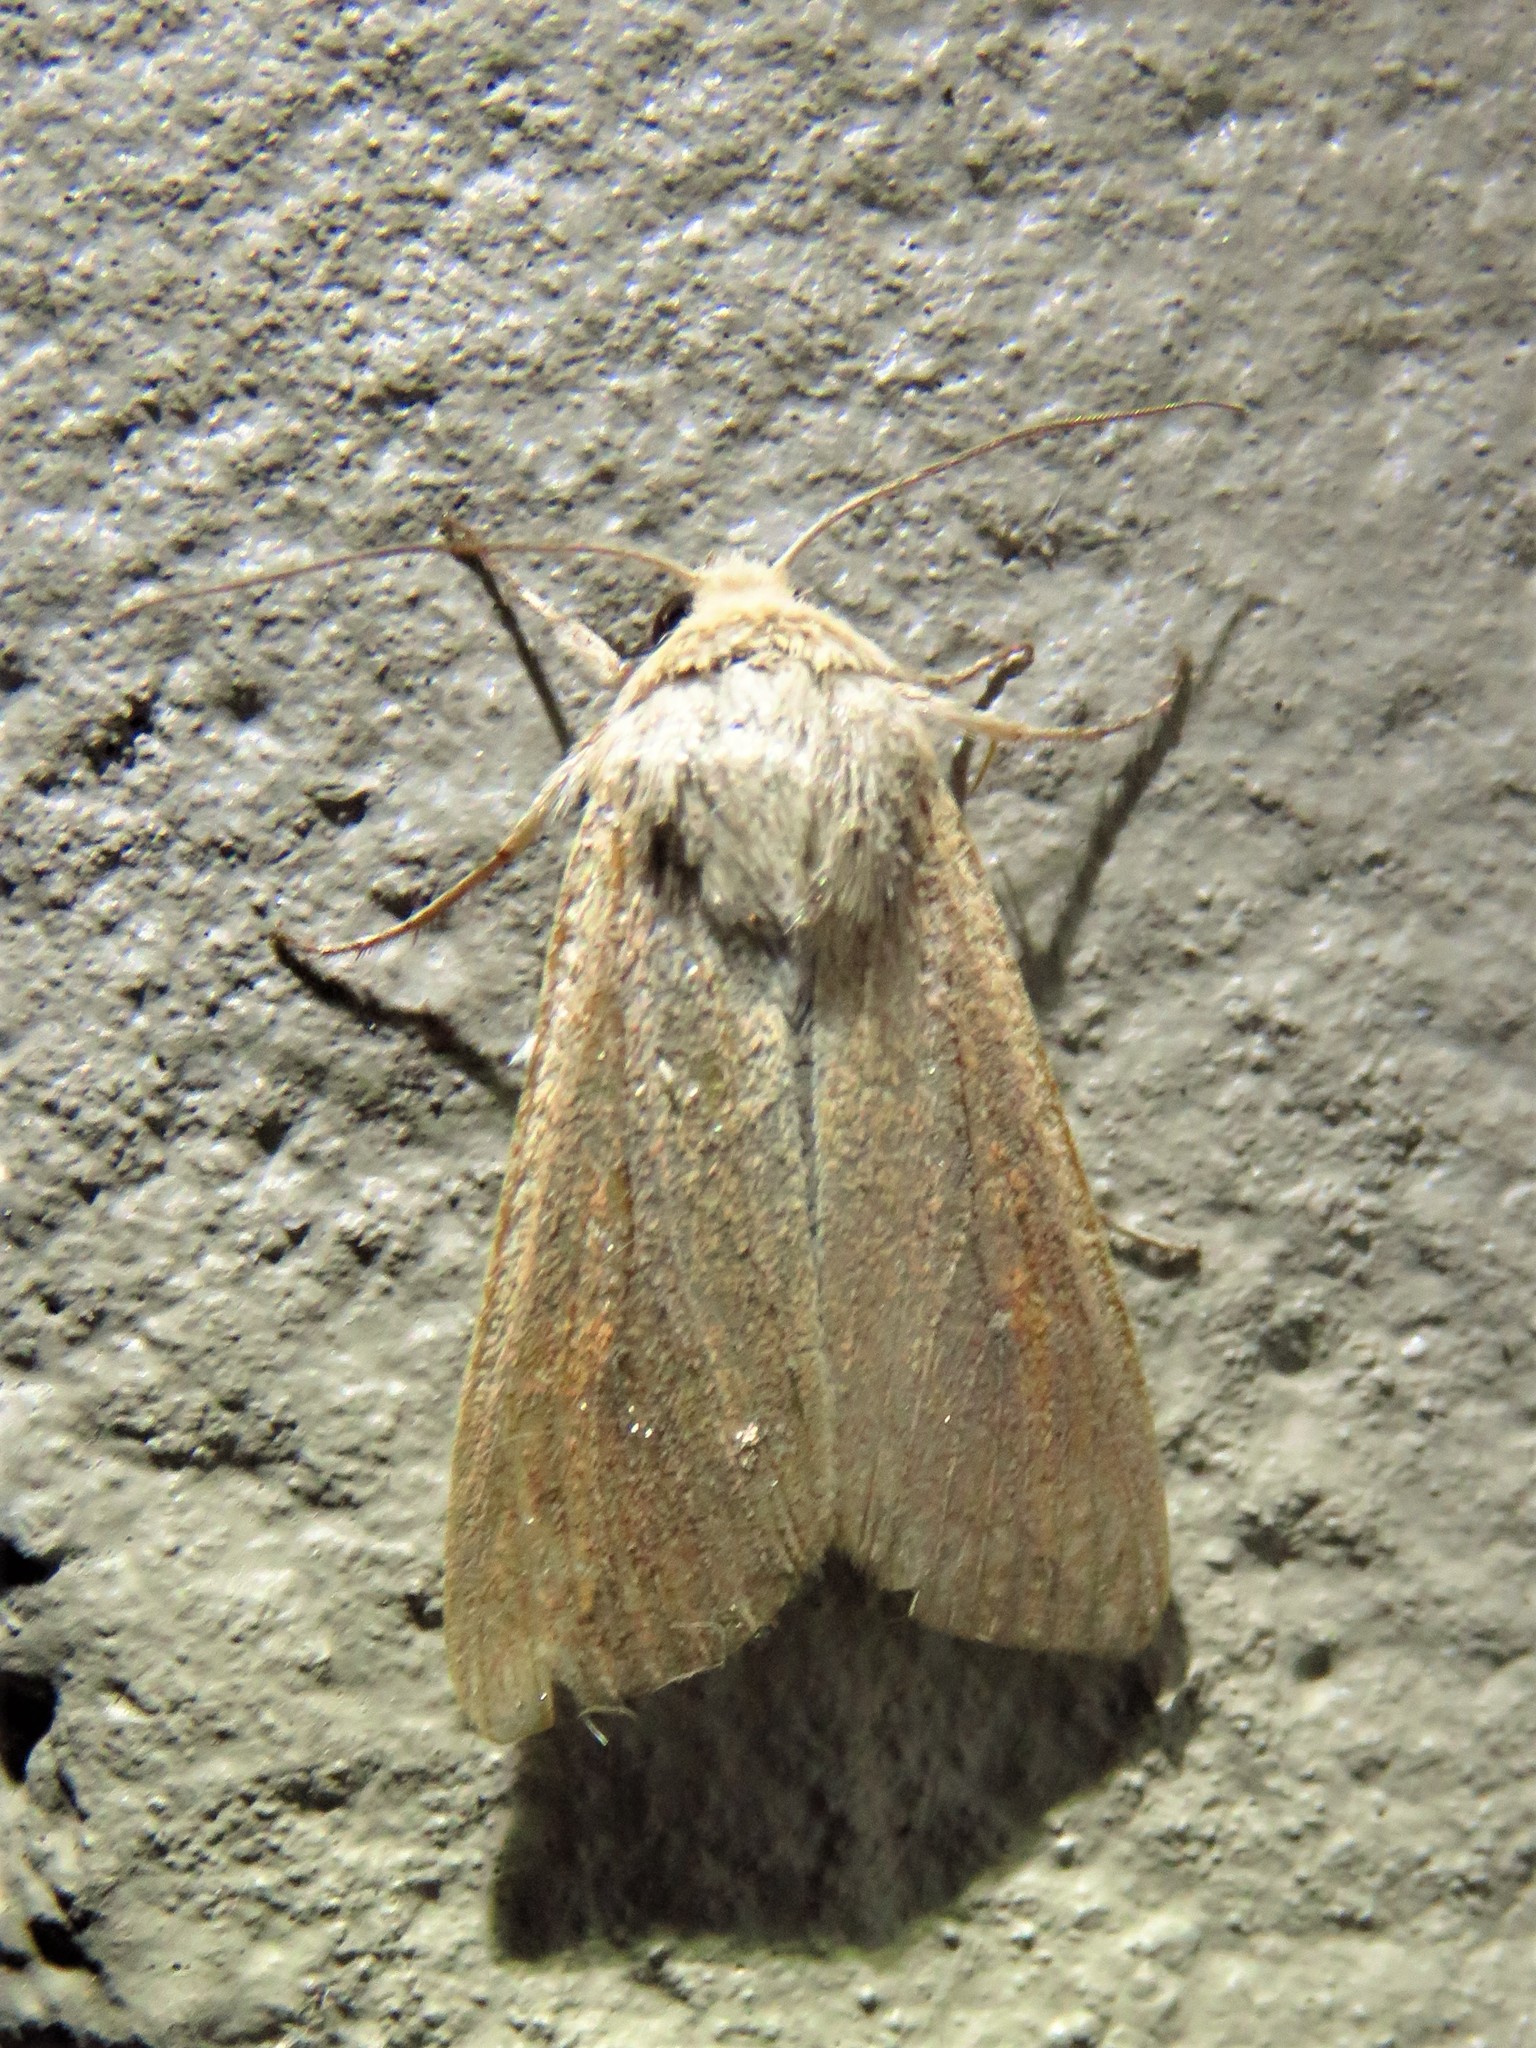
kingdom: Animalia
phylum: Arthropoda
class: Insecta
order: Lepidoptera
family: Noctuidae
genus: Mythimna
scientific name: Mythimna unipuncta
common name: White-speck
